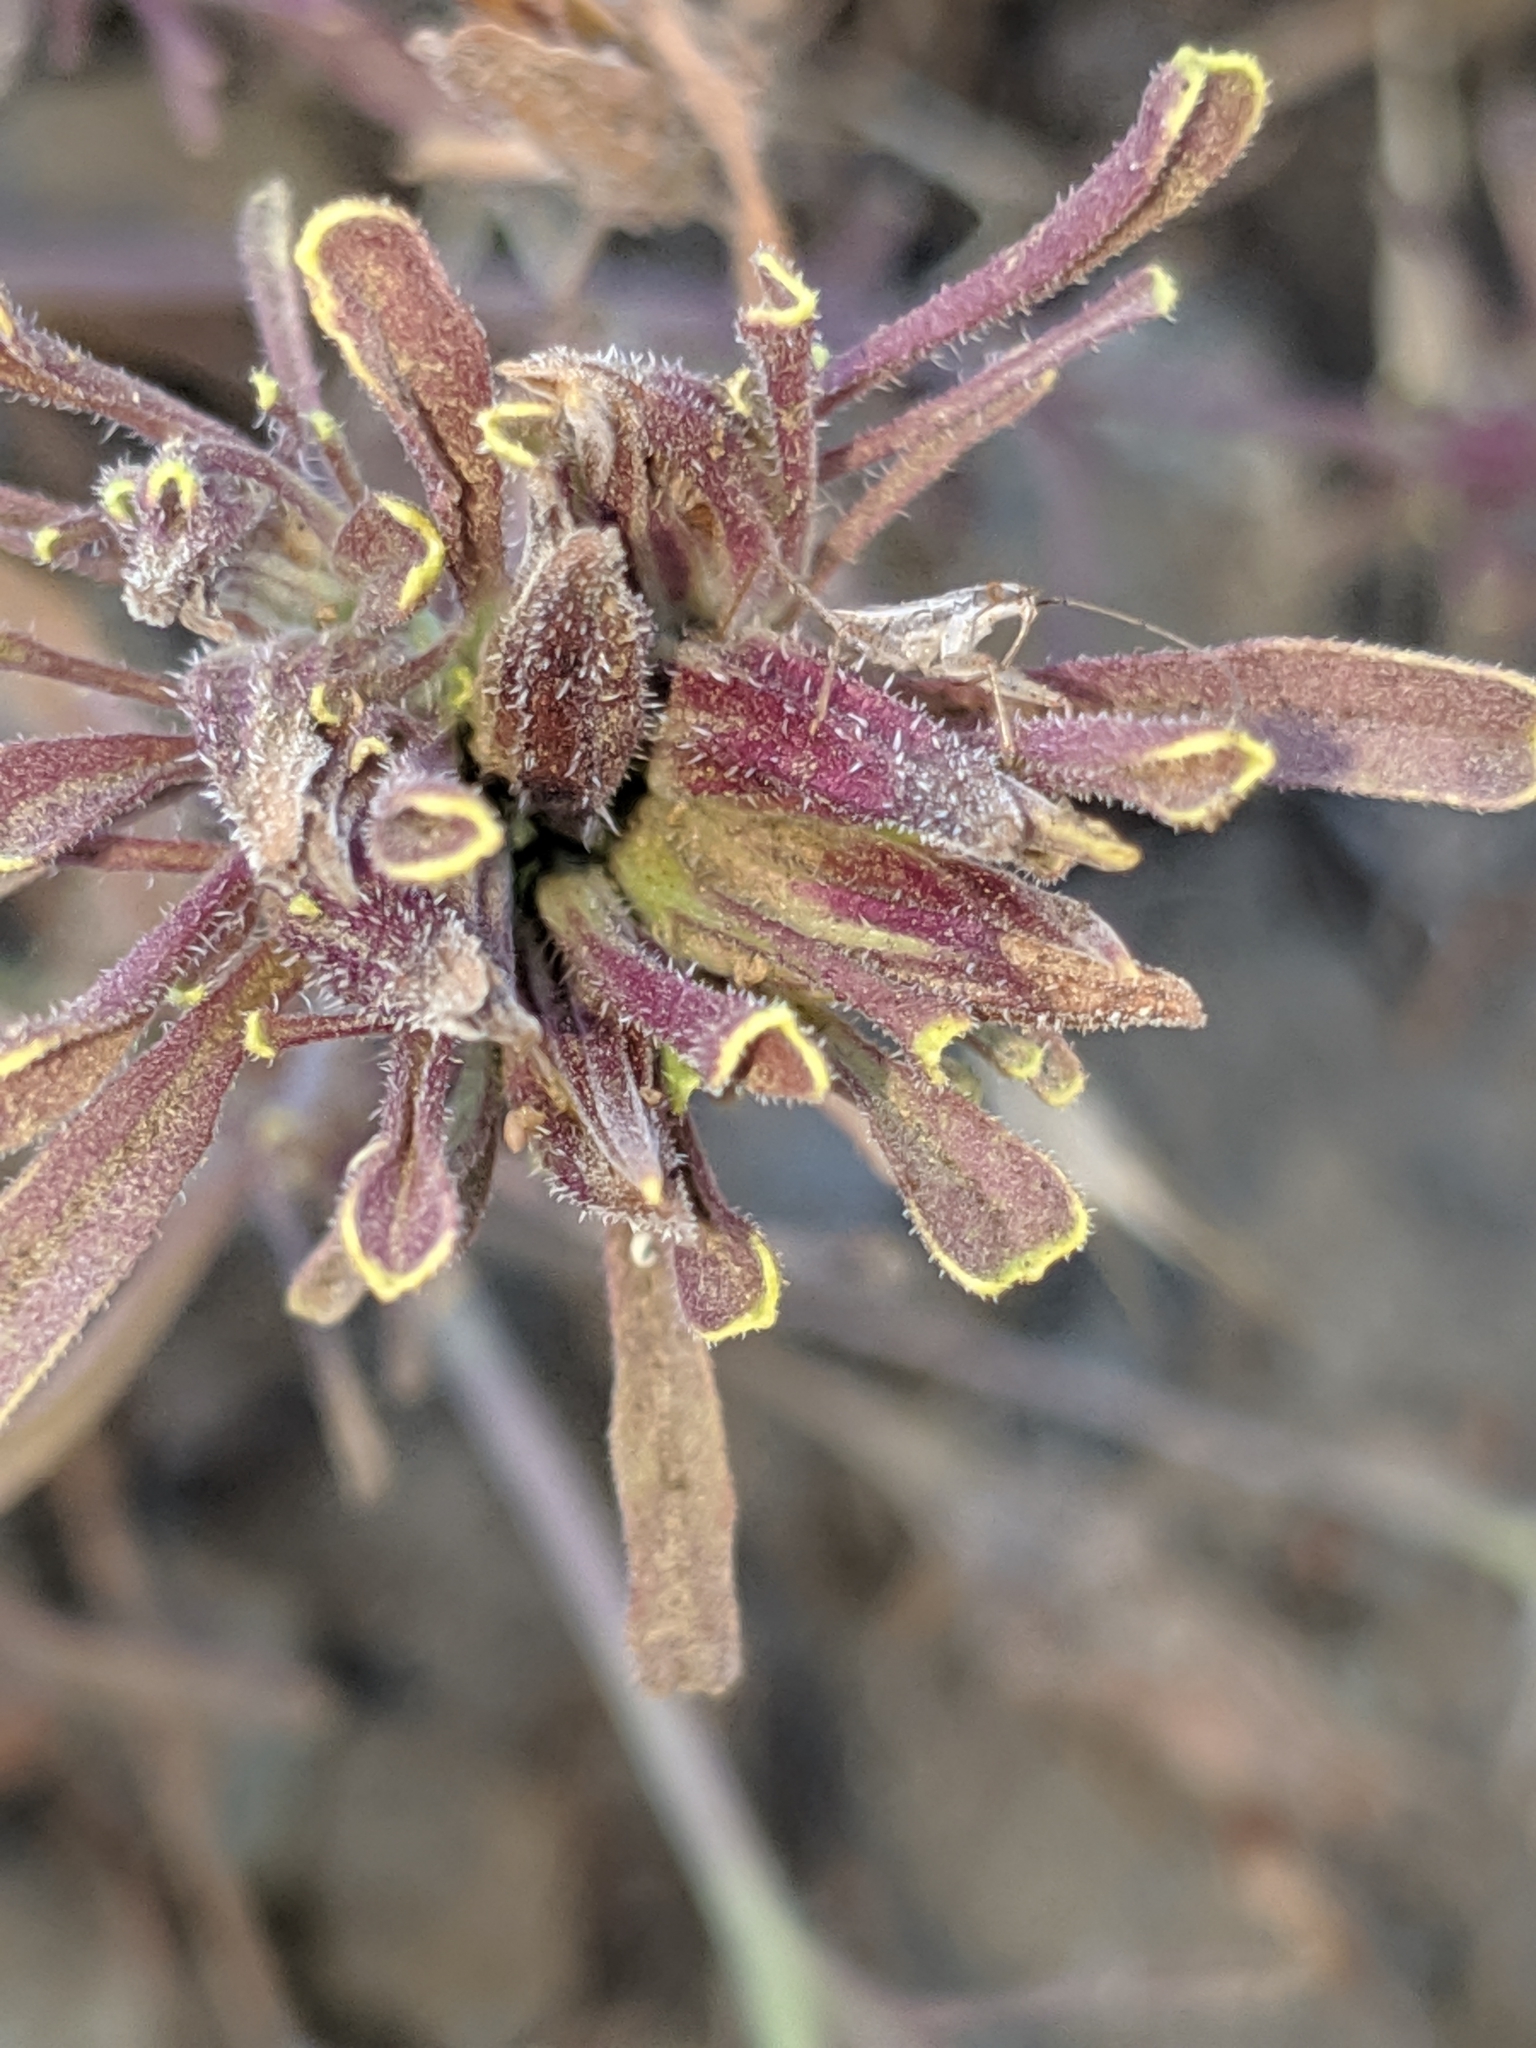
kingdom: Plantae
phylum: Tracheophyta
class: Magnoliopsida
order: Lamiales
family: Orobanchaceae
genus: Cordylanthus
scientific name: Cordylanthus rigidus
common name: Stiff-branch bird's-beak
